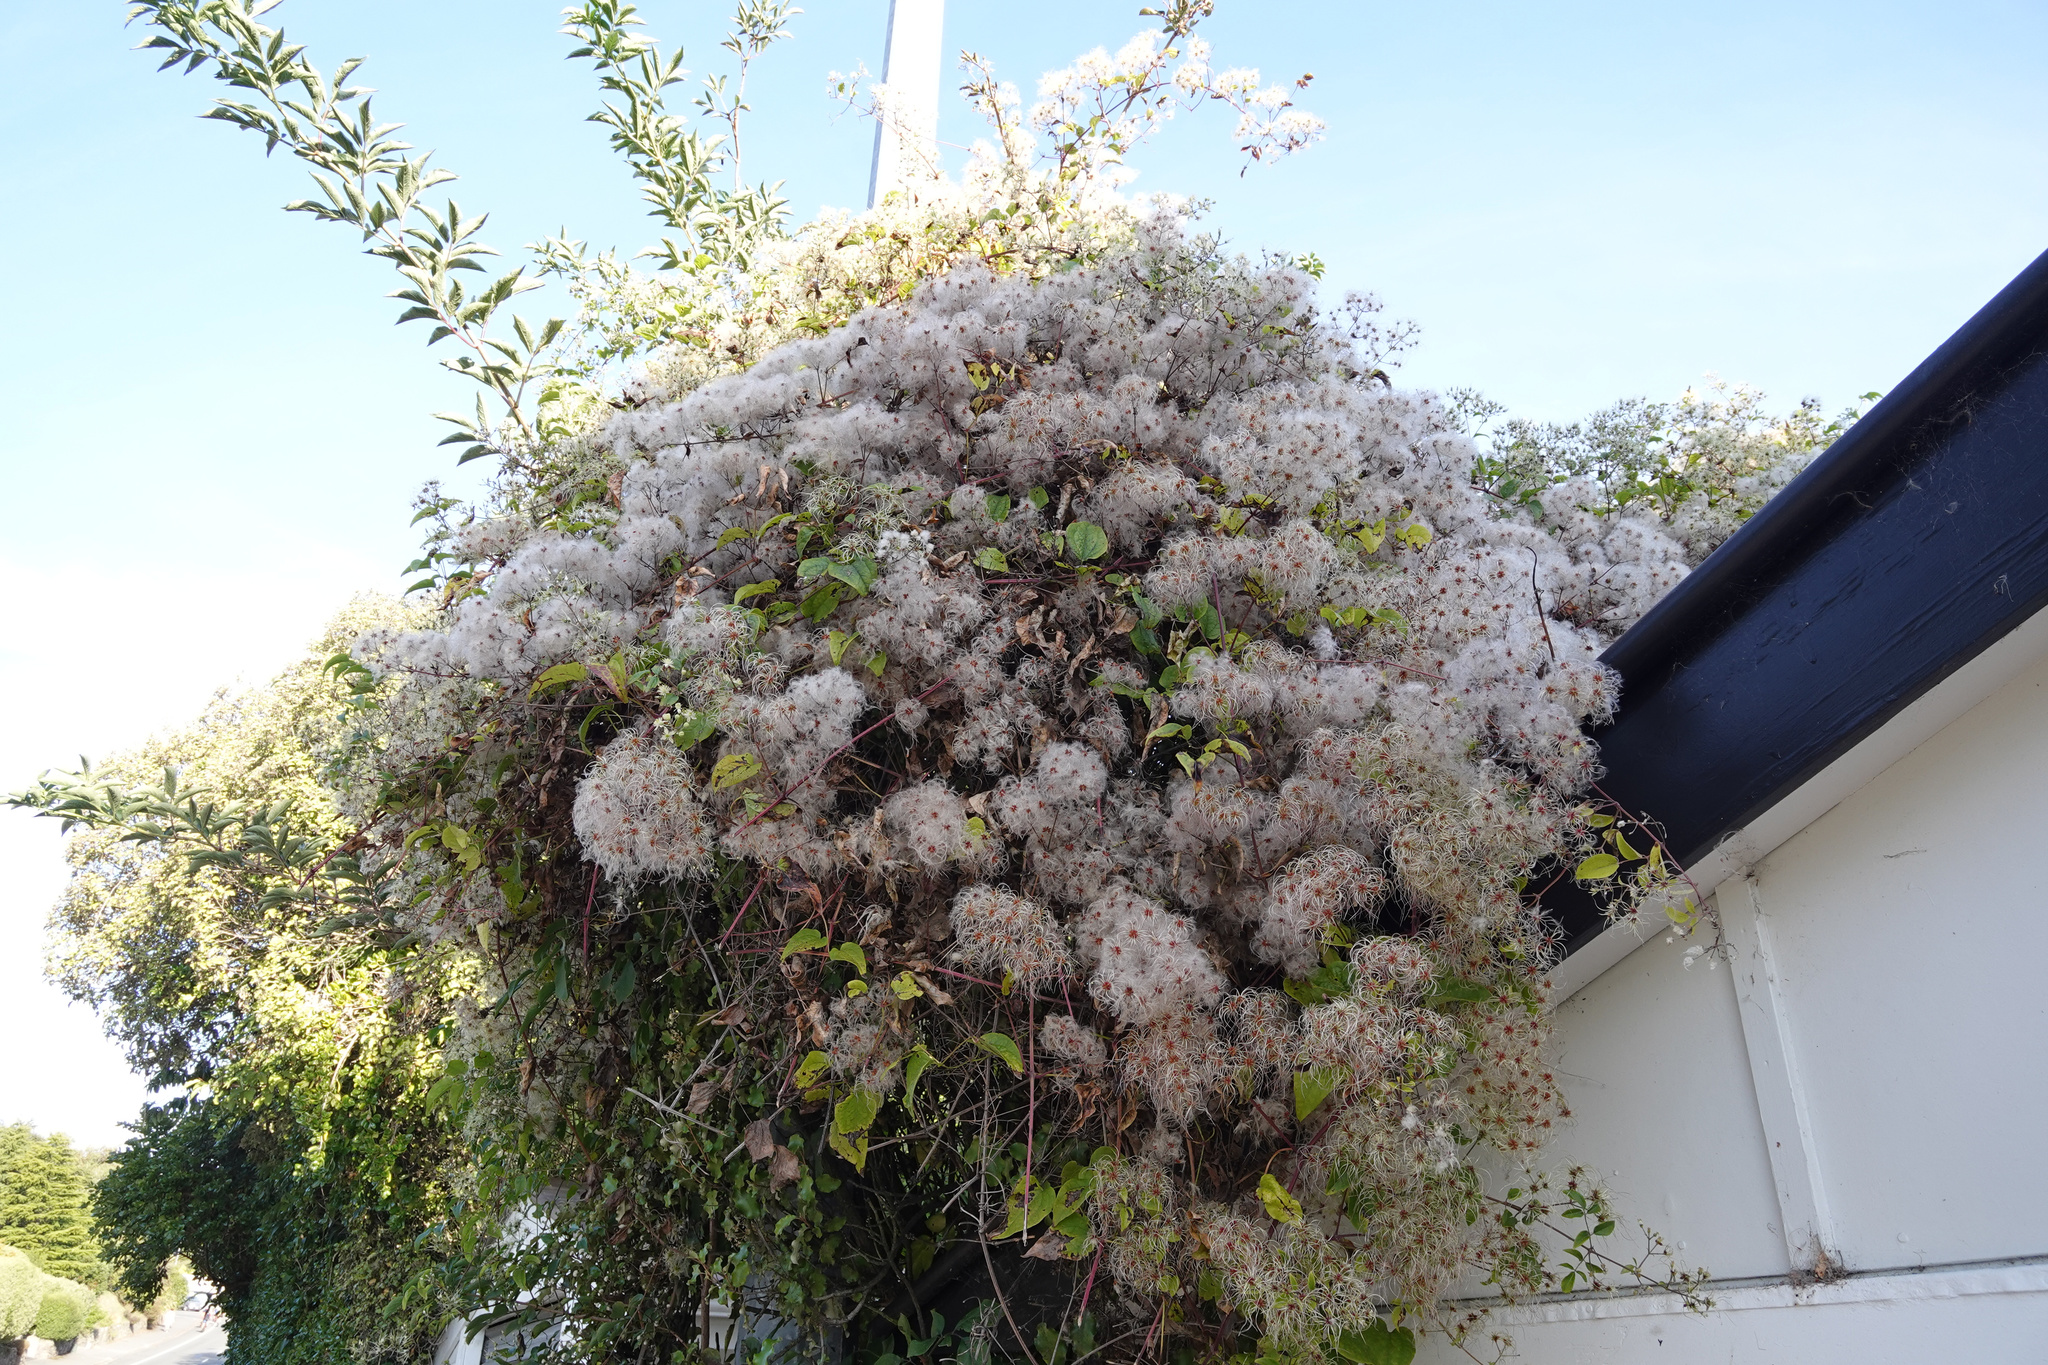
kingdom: Plantae
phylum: Tracheophyta
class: Magnoliopsida
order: Ranunculales
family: Ranunculaceae
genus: Clematis
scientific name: Clematis vitalba
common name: Evergreen clematis
